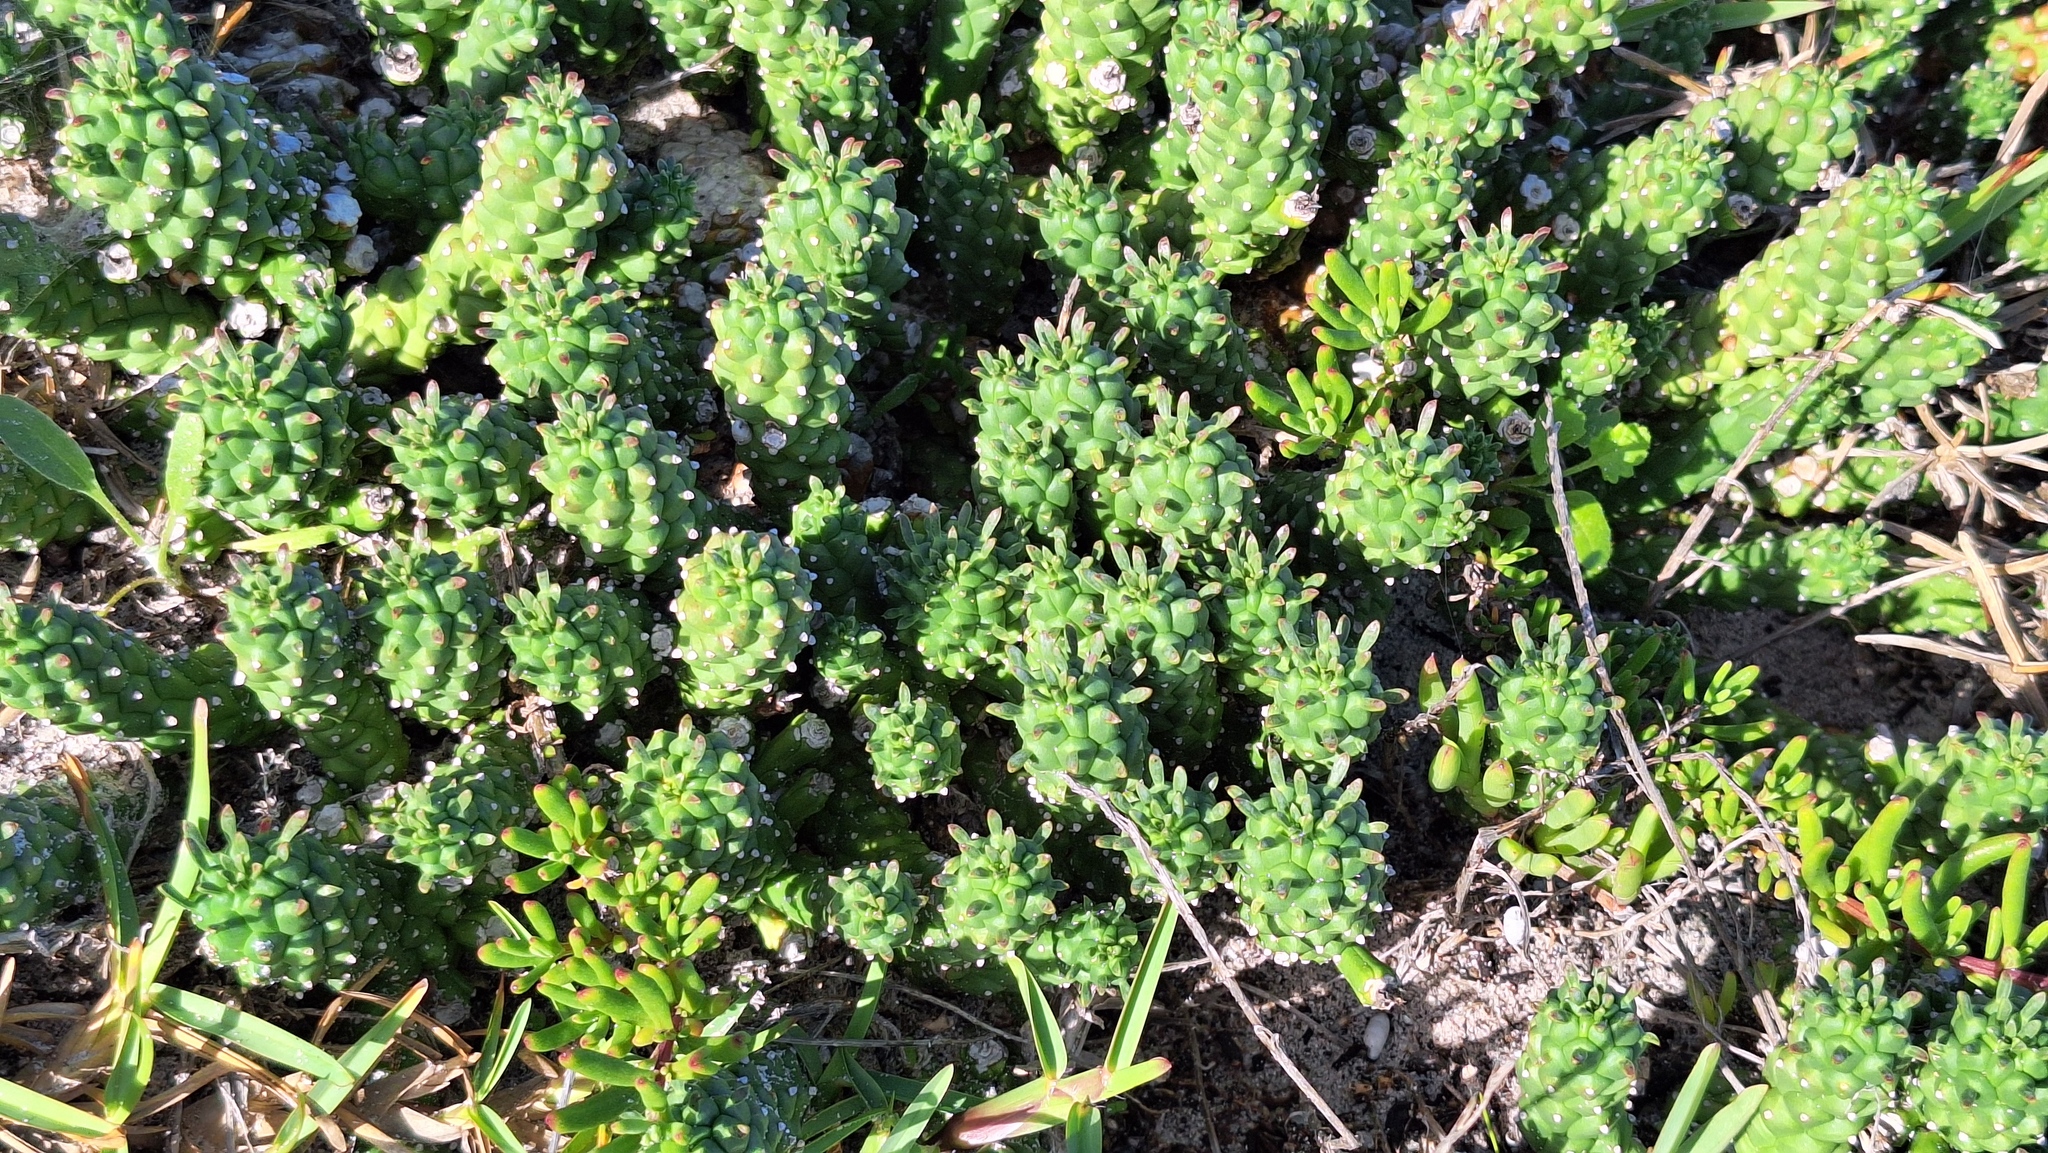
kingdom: Plantae
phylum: Tracheophyta
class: Magnoliopsida
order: Malpighiales
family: Euphorbiaceae
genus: Euphorbia
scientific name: Euphorbia caput-medusae
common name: Medusa's-head
